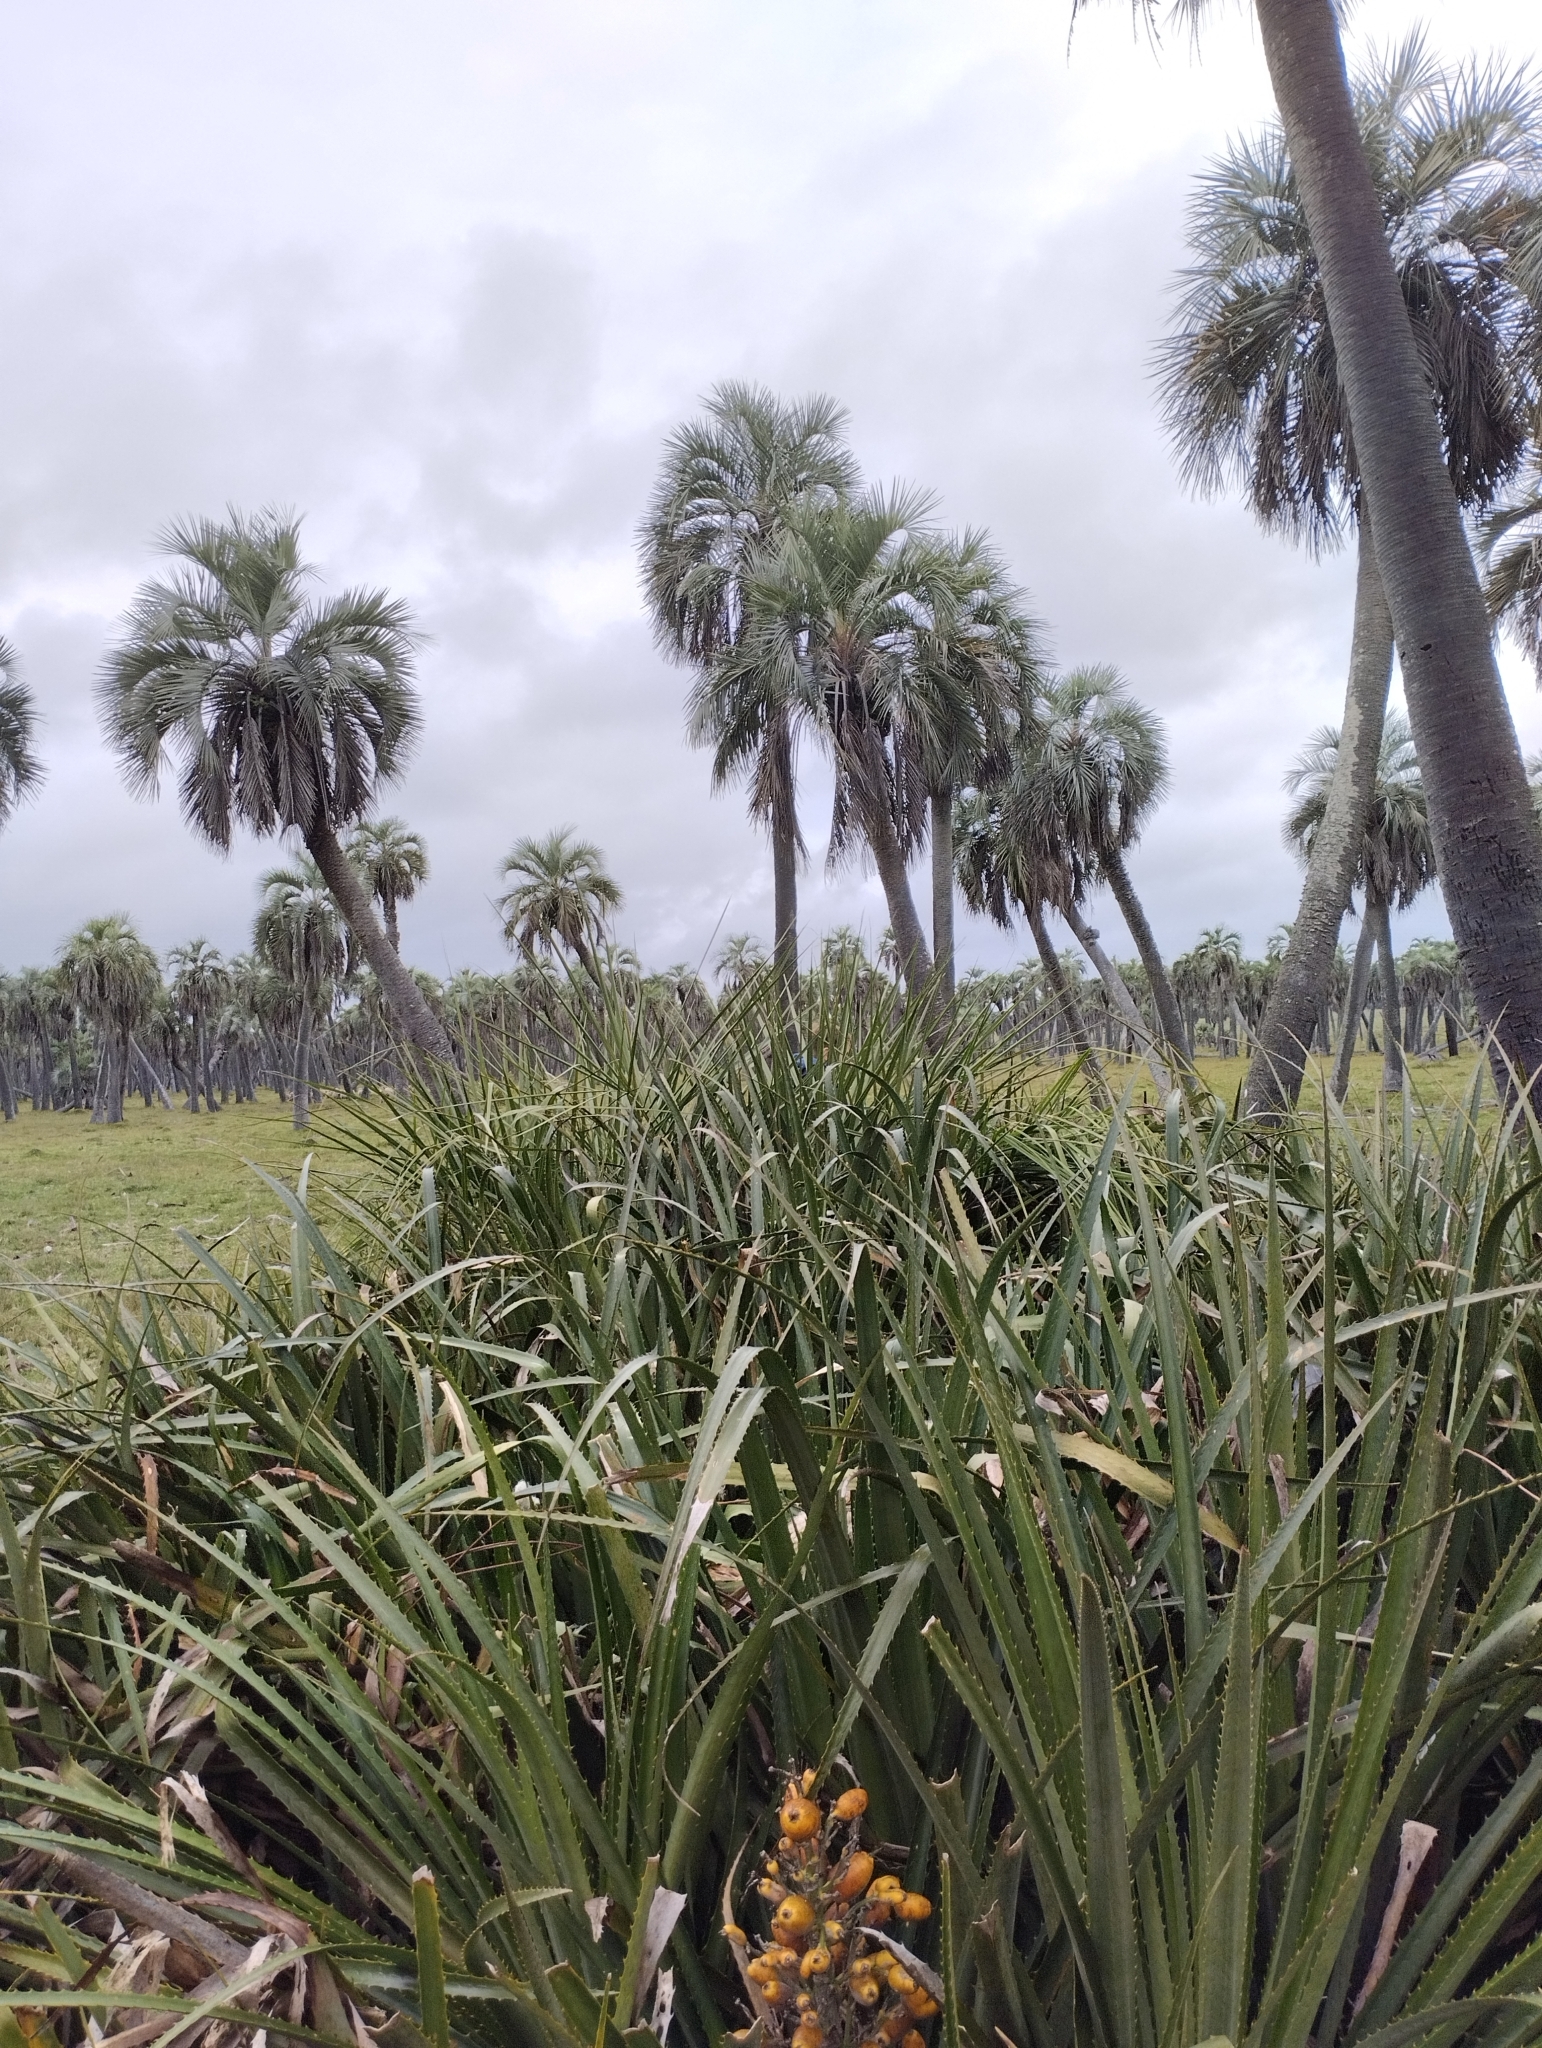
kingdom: Plantae
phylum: Tracheophyta
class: Liliopsida
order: Poales
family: Bromeliaceae
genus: Bromelia
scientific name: Bromelia antiacantha
